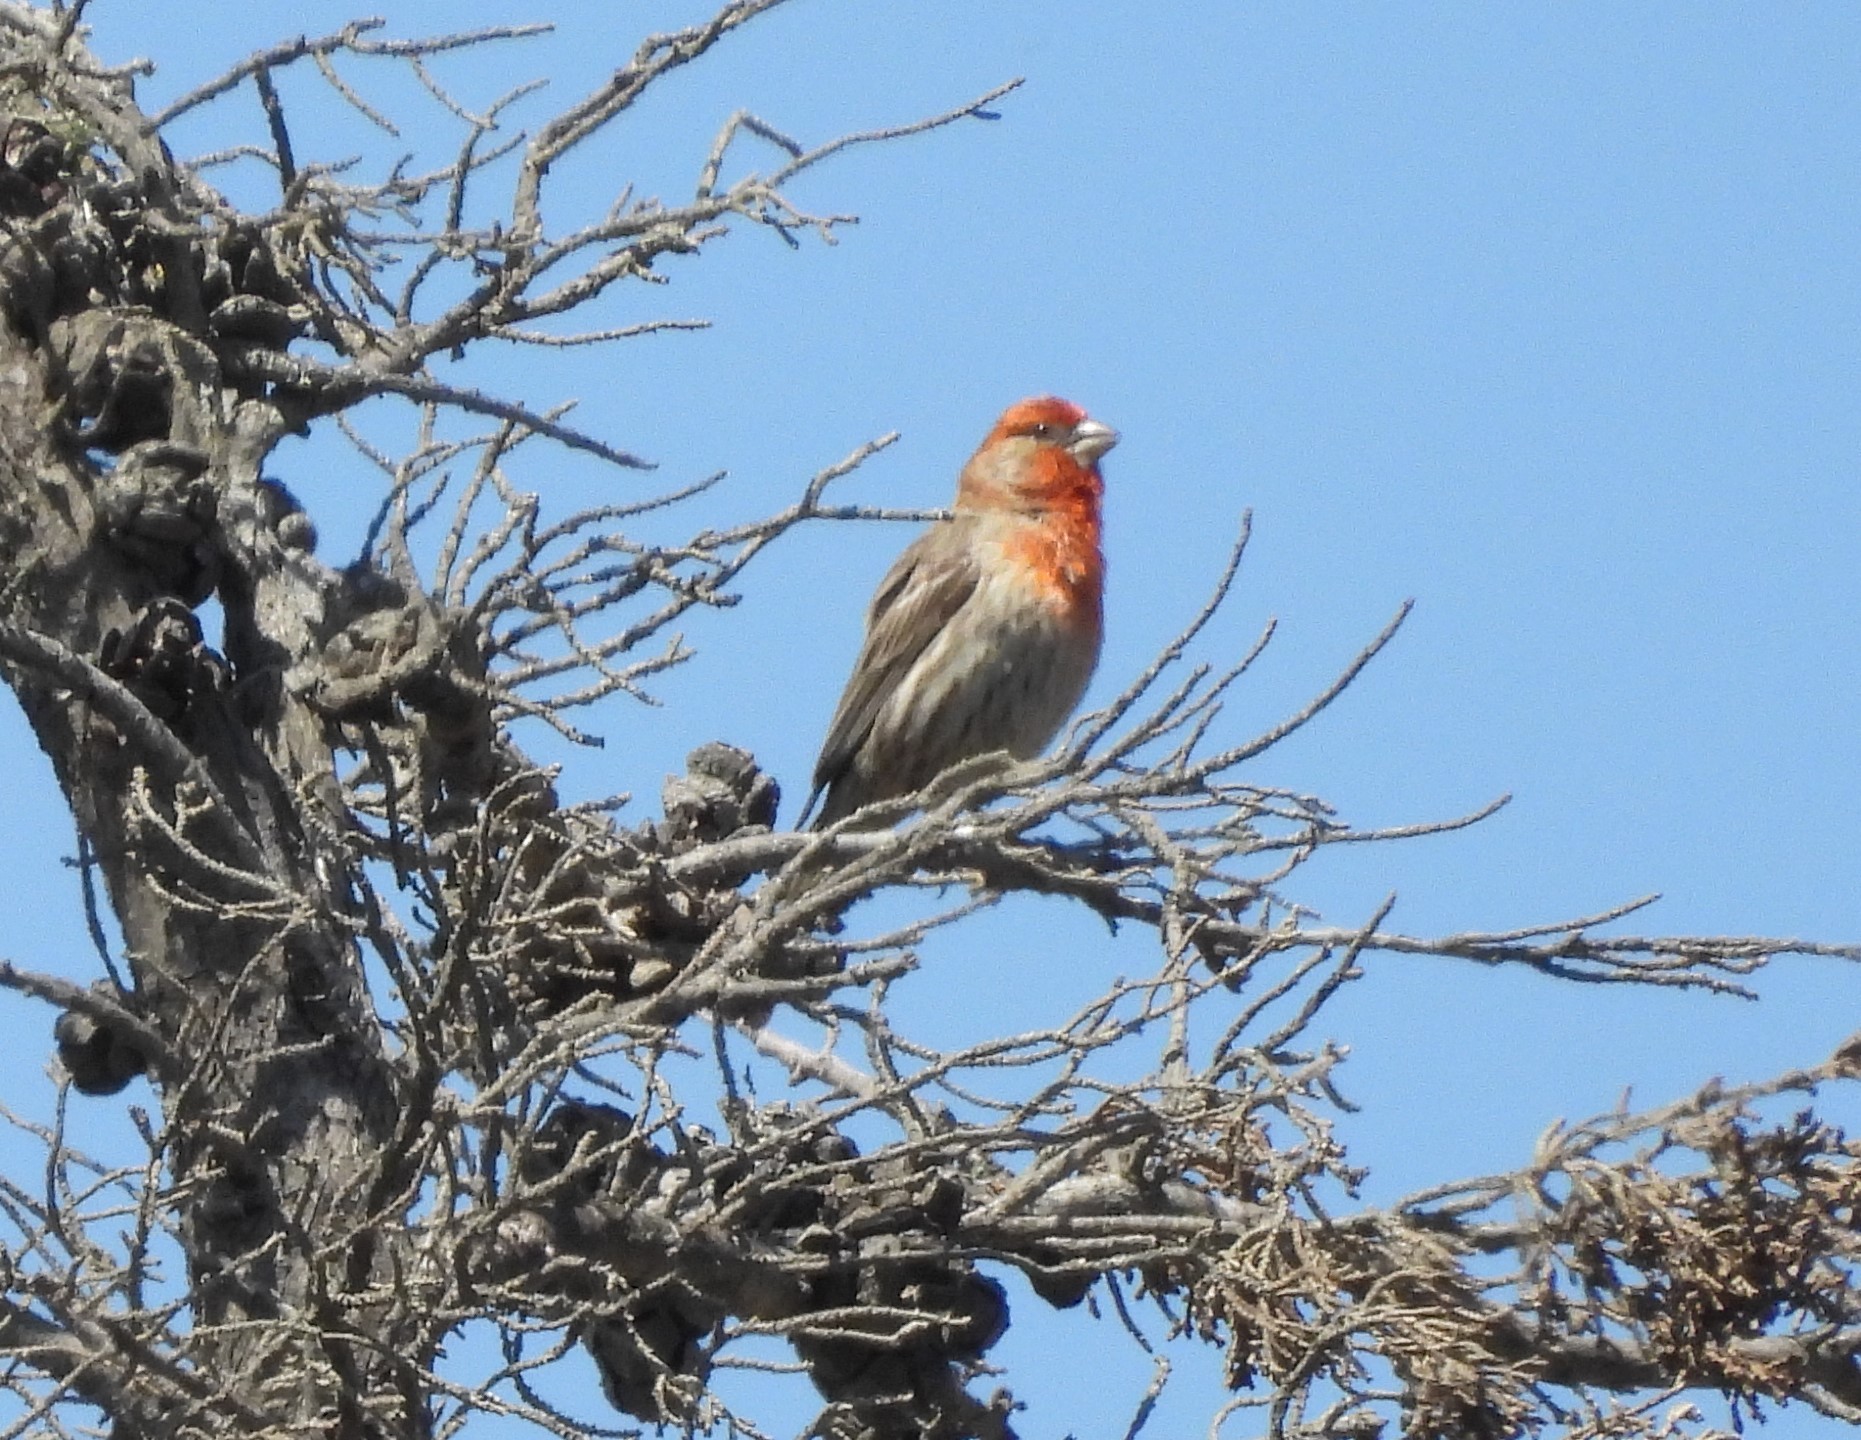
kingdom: Animalia
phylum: Chordata
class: Aves
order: Passeriformes
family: Fringillidae
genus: Haemorhous
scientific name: Haemorhous mexicanus
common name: House finch
